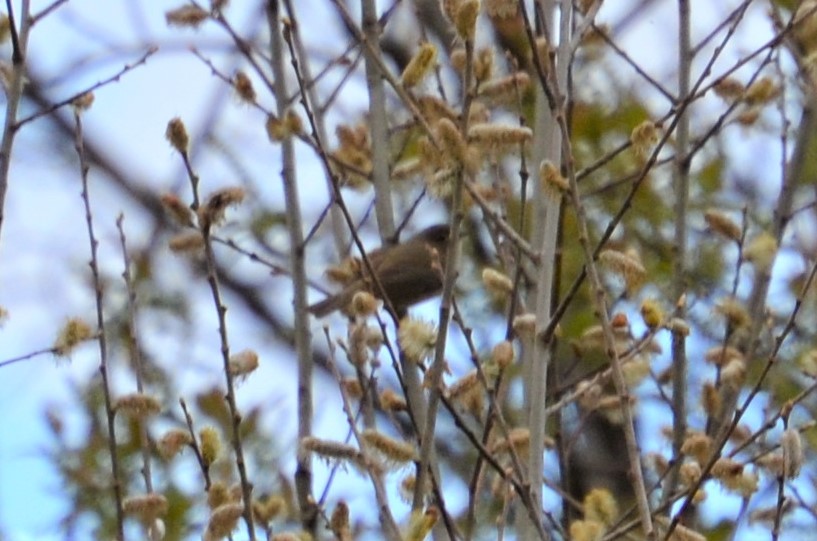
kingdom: Animalia
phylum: Chordata
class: Aves
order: Passeriformes
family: Phylloscopidae
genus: Phylloscopus
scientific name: Phylloscopus collybita
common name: Common chiffchaff
